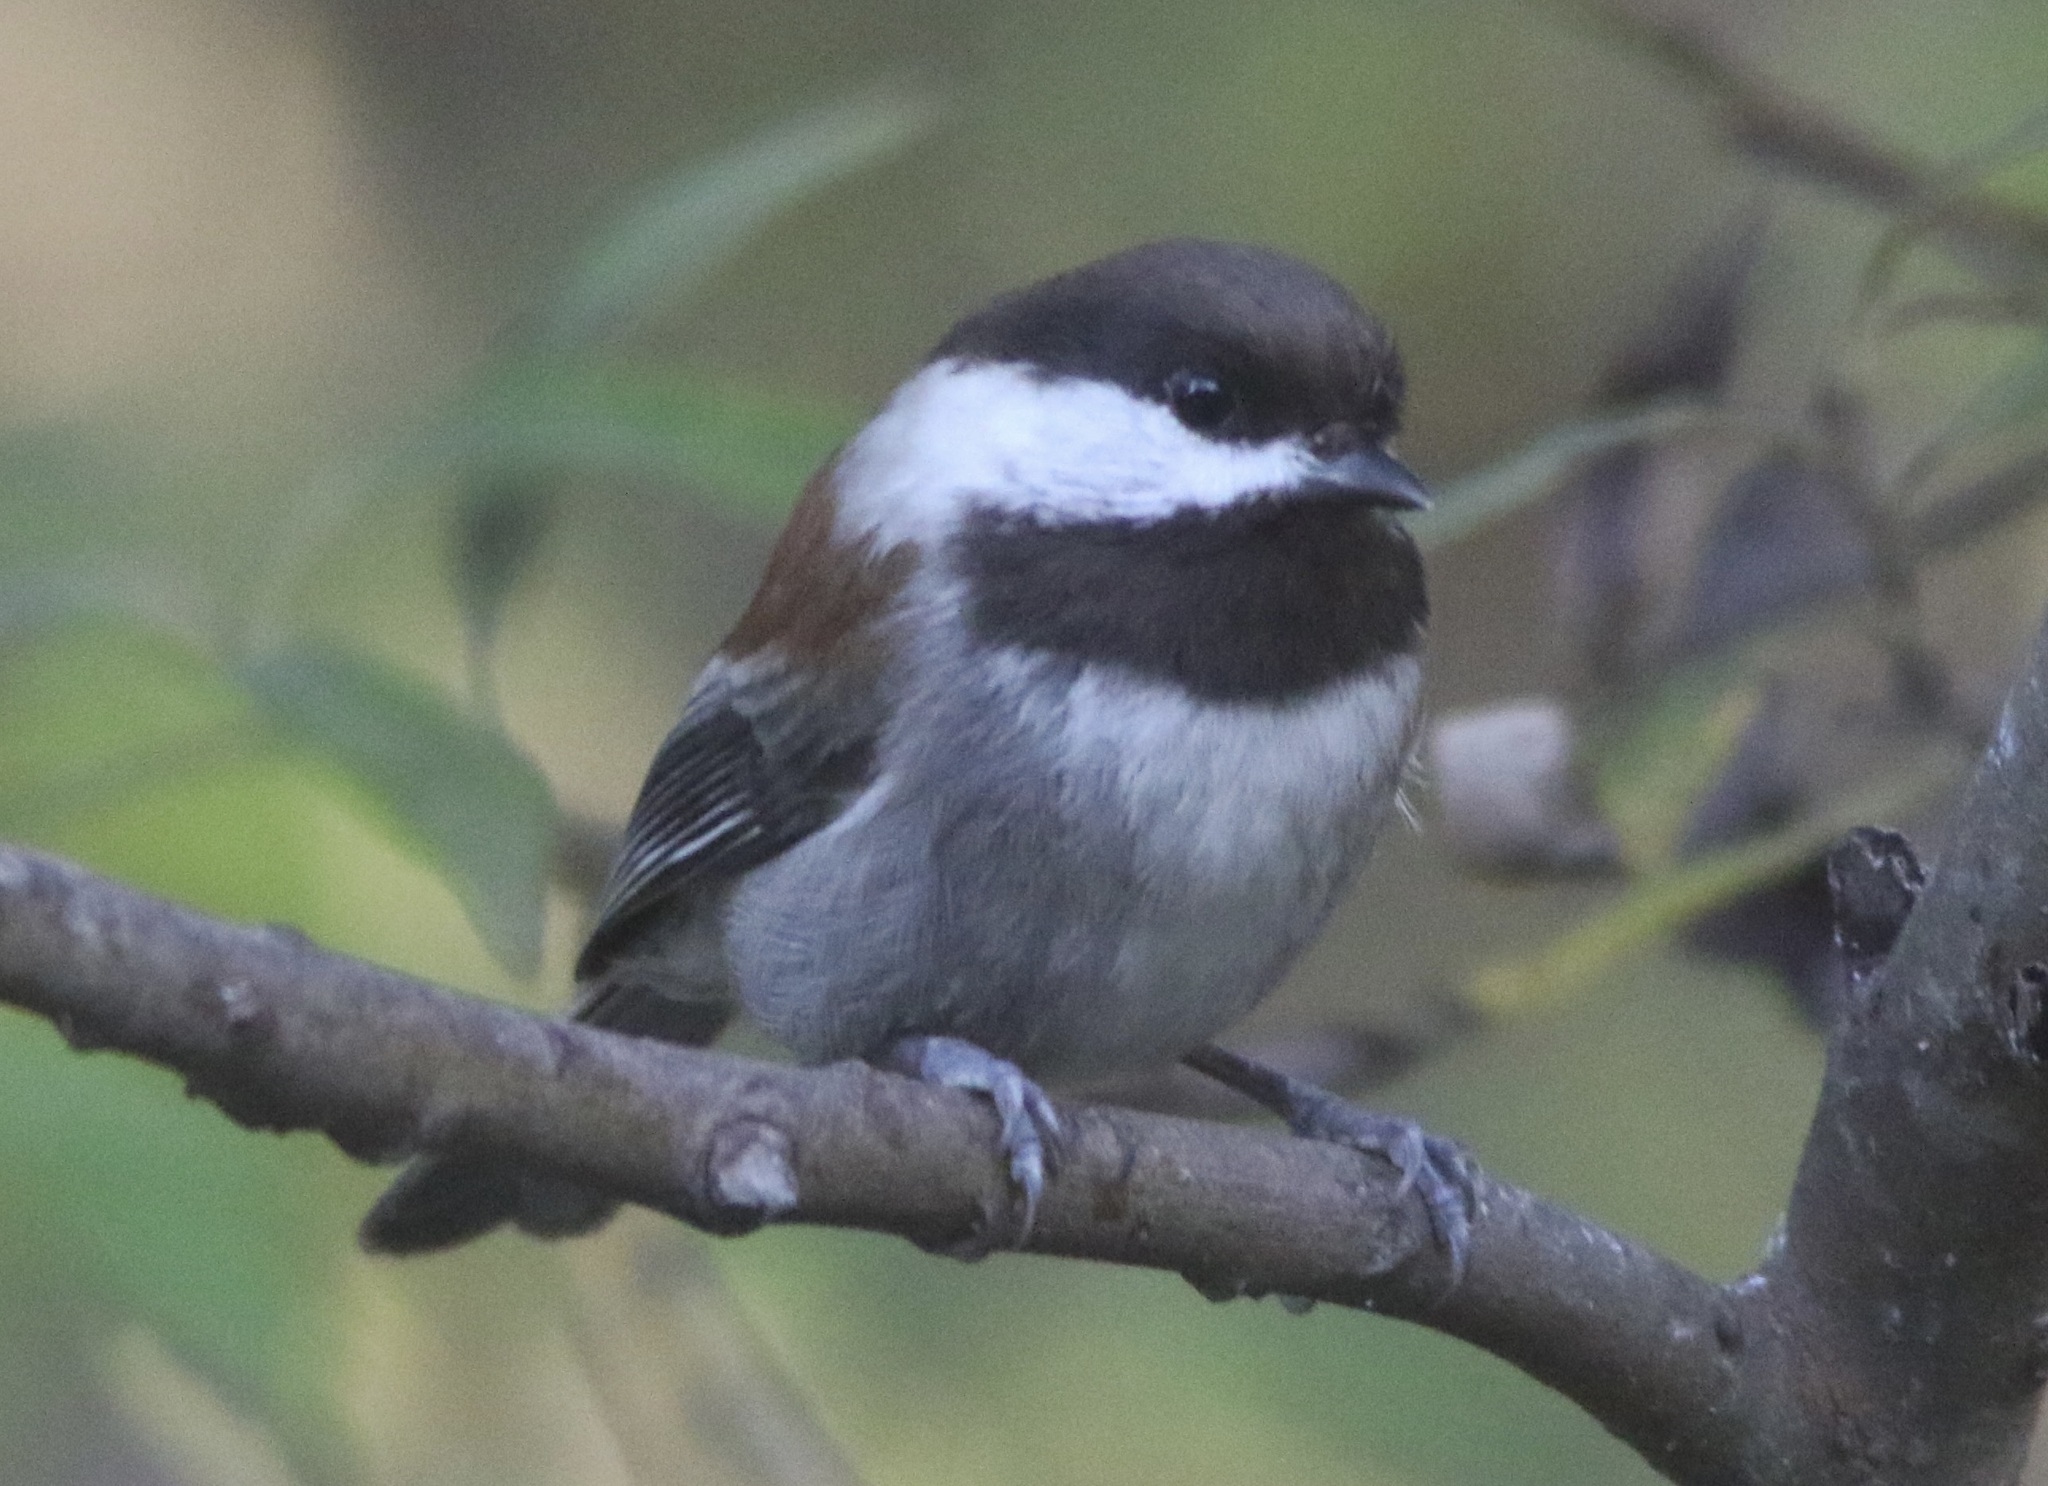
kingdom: Animalia
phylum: Chordata
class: Aves
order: Passeriformes
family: Paridae
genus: Poecile
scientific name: Poecile rufescens
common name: Chestnut-backed chickadee
